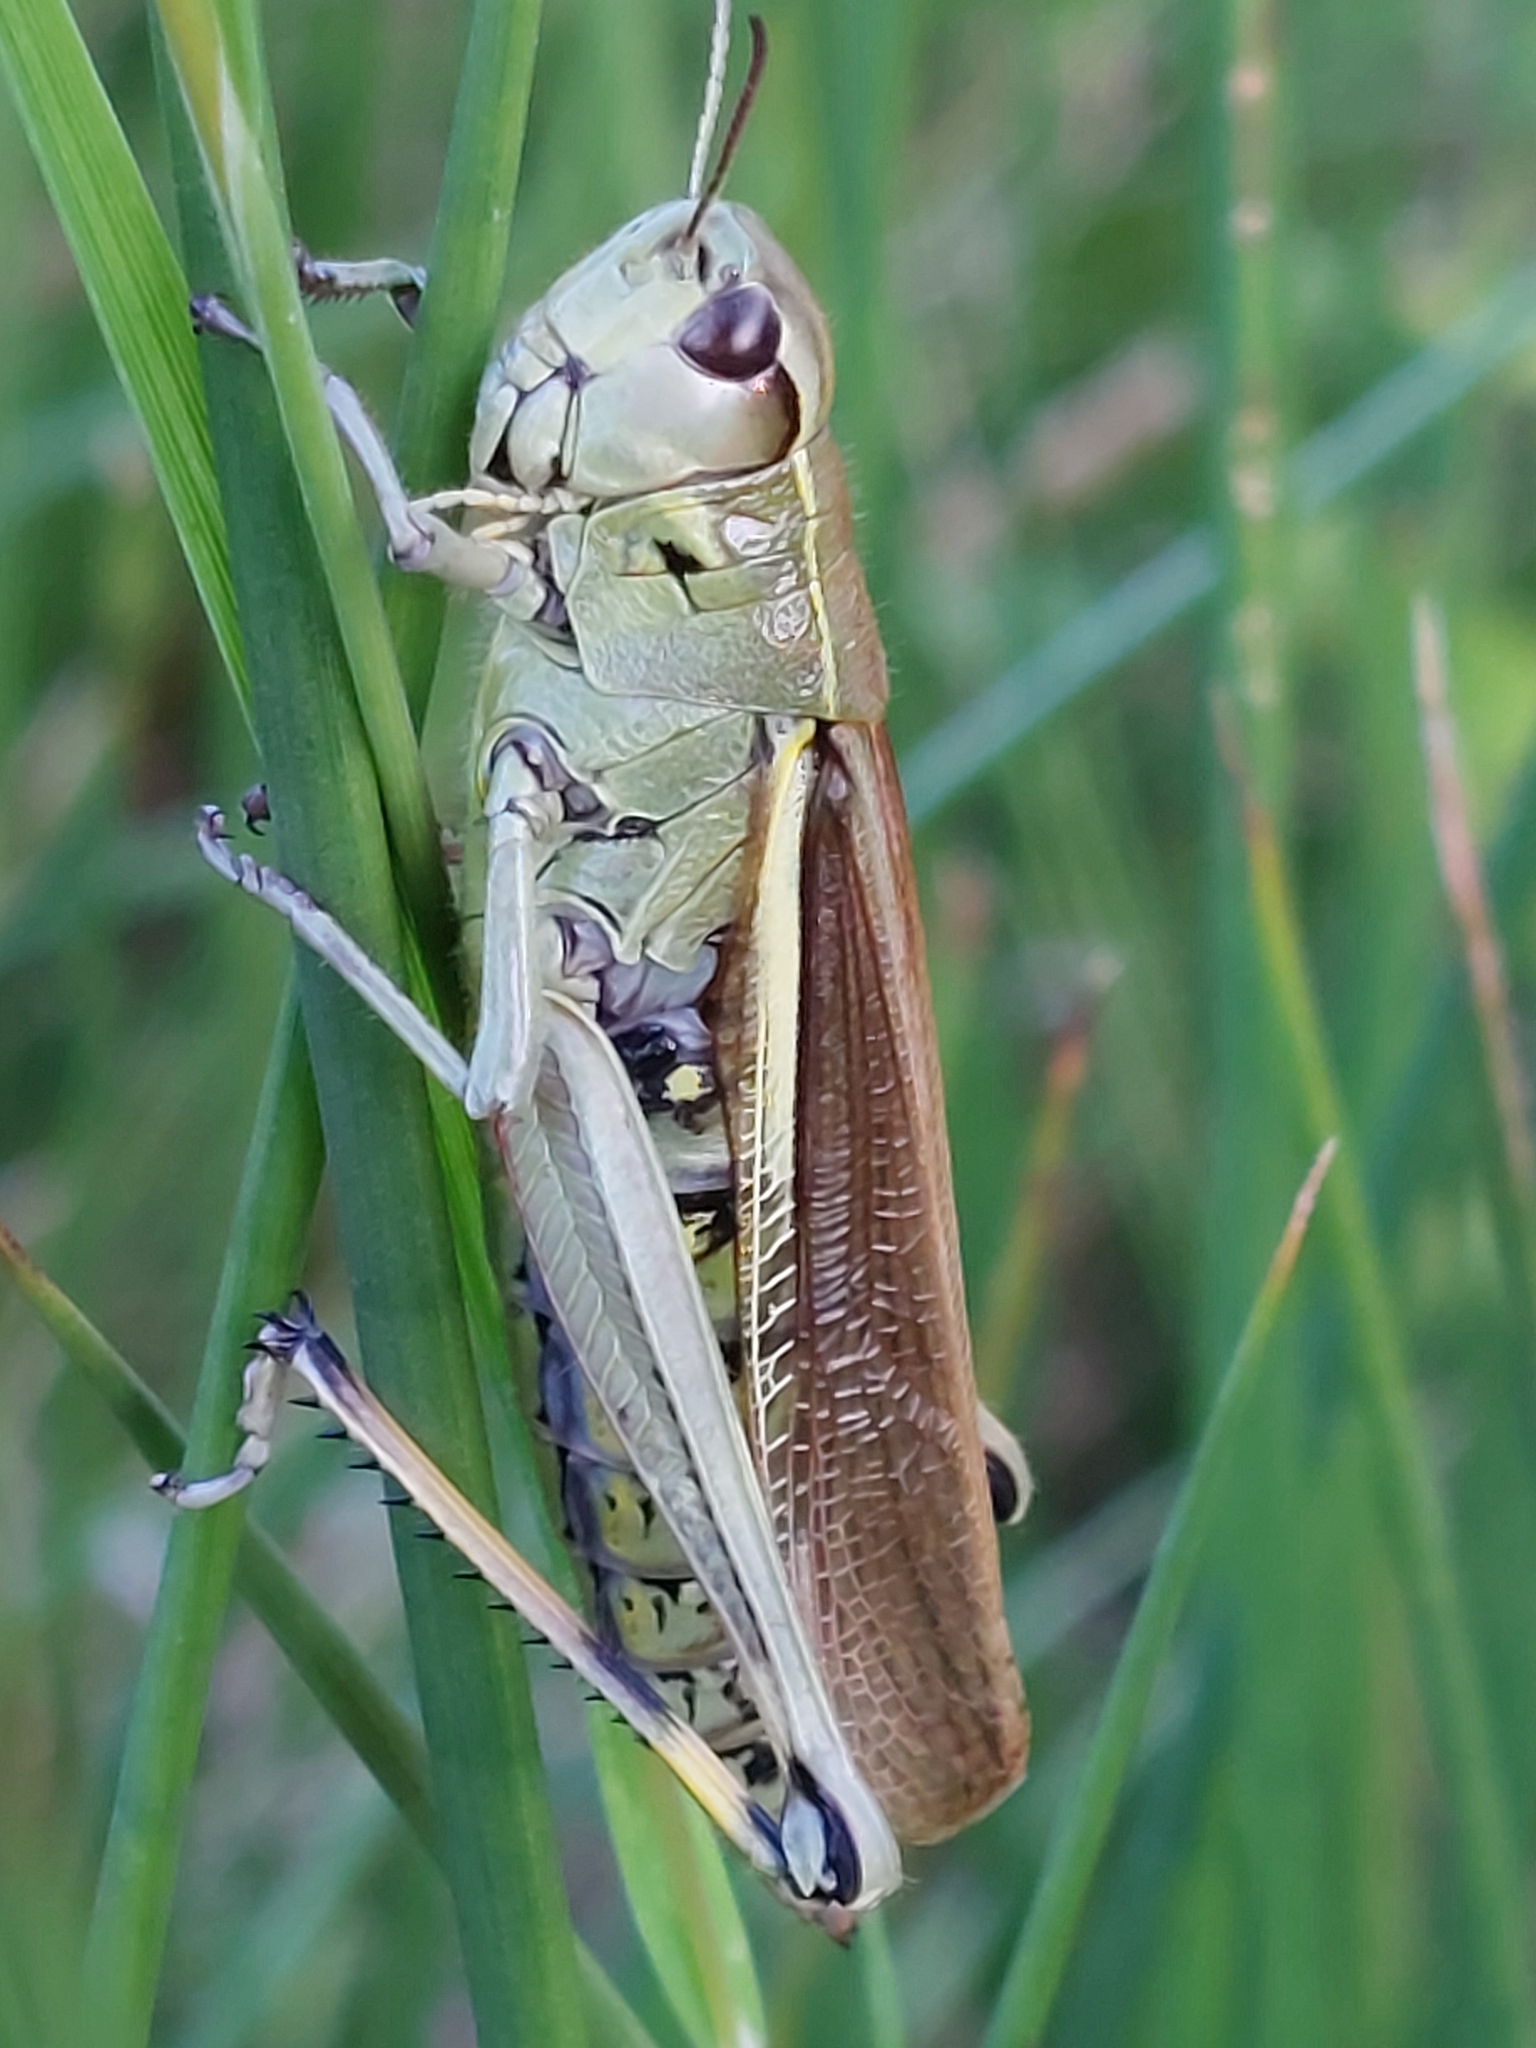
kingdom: Animalia
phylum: Arthropoda
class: Insecta
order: Orthoptera
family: Acrididae
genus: Stethophyma
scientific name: Stethophyma grossum
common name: Large marsh grasshopper
